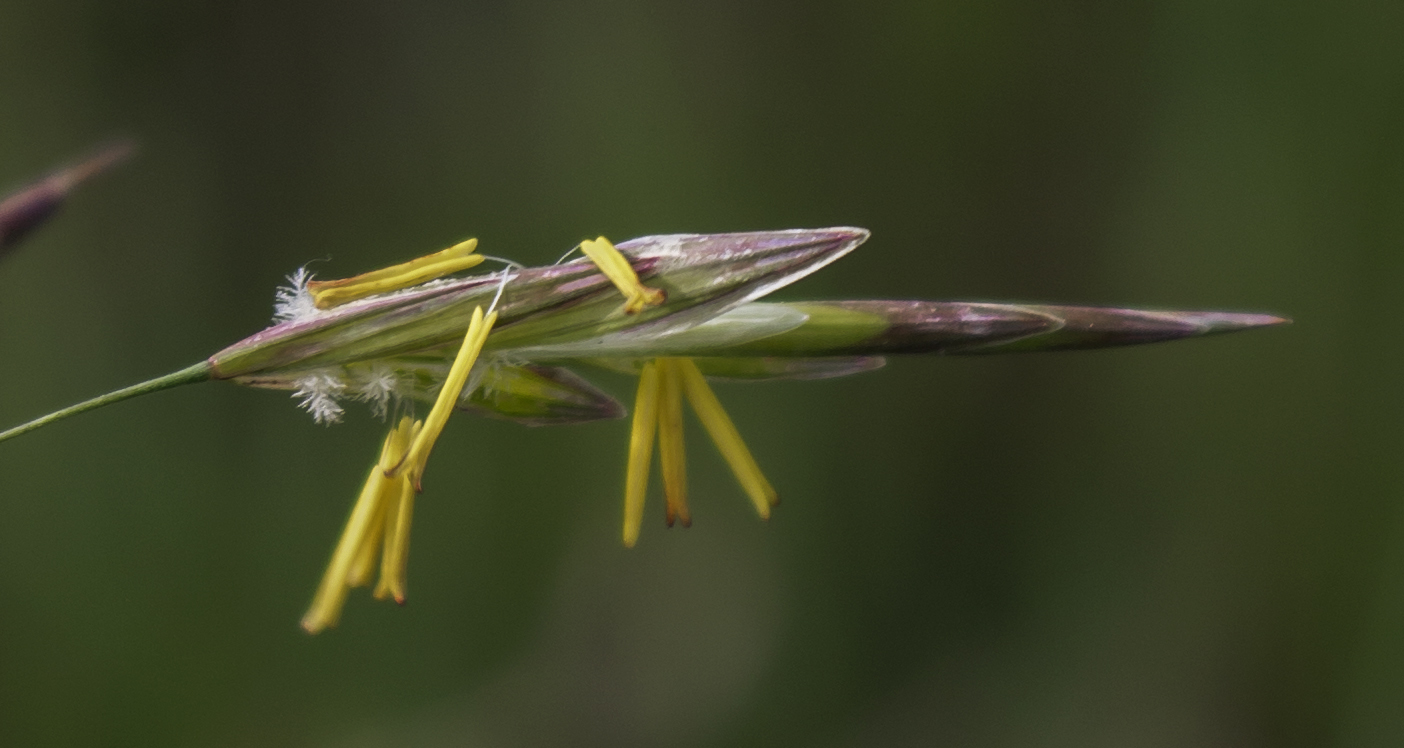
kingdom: Plantae
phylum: Tracheophyta
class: Liliopsida
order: Poales
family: Poaceae
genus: Bromus
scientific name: Bromus inermis
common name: Smooth brome
